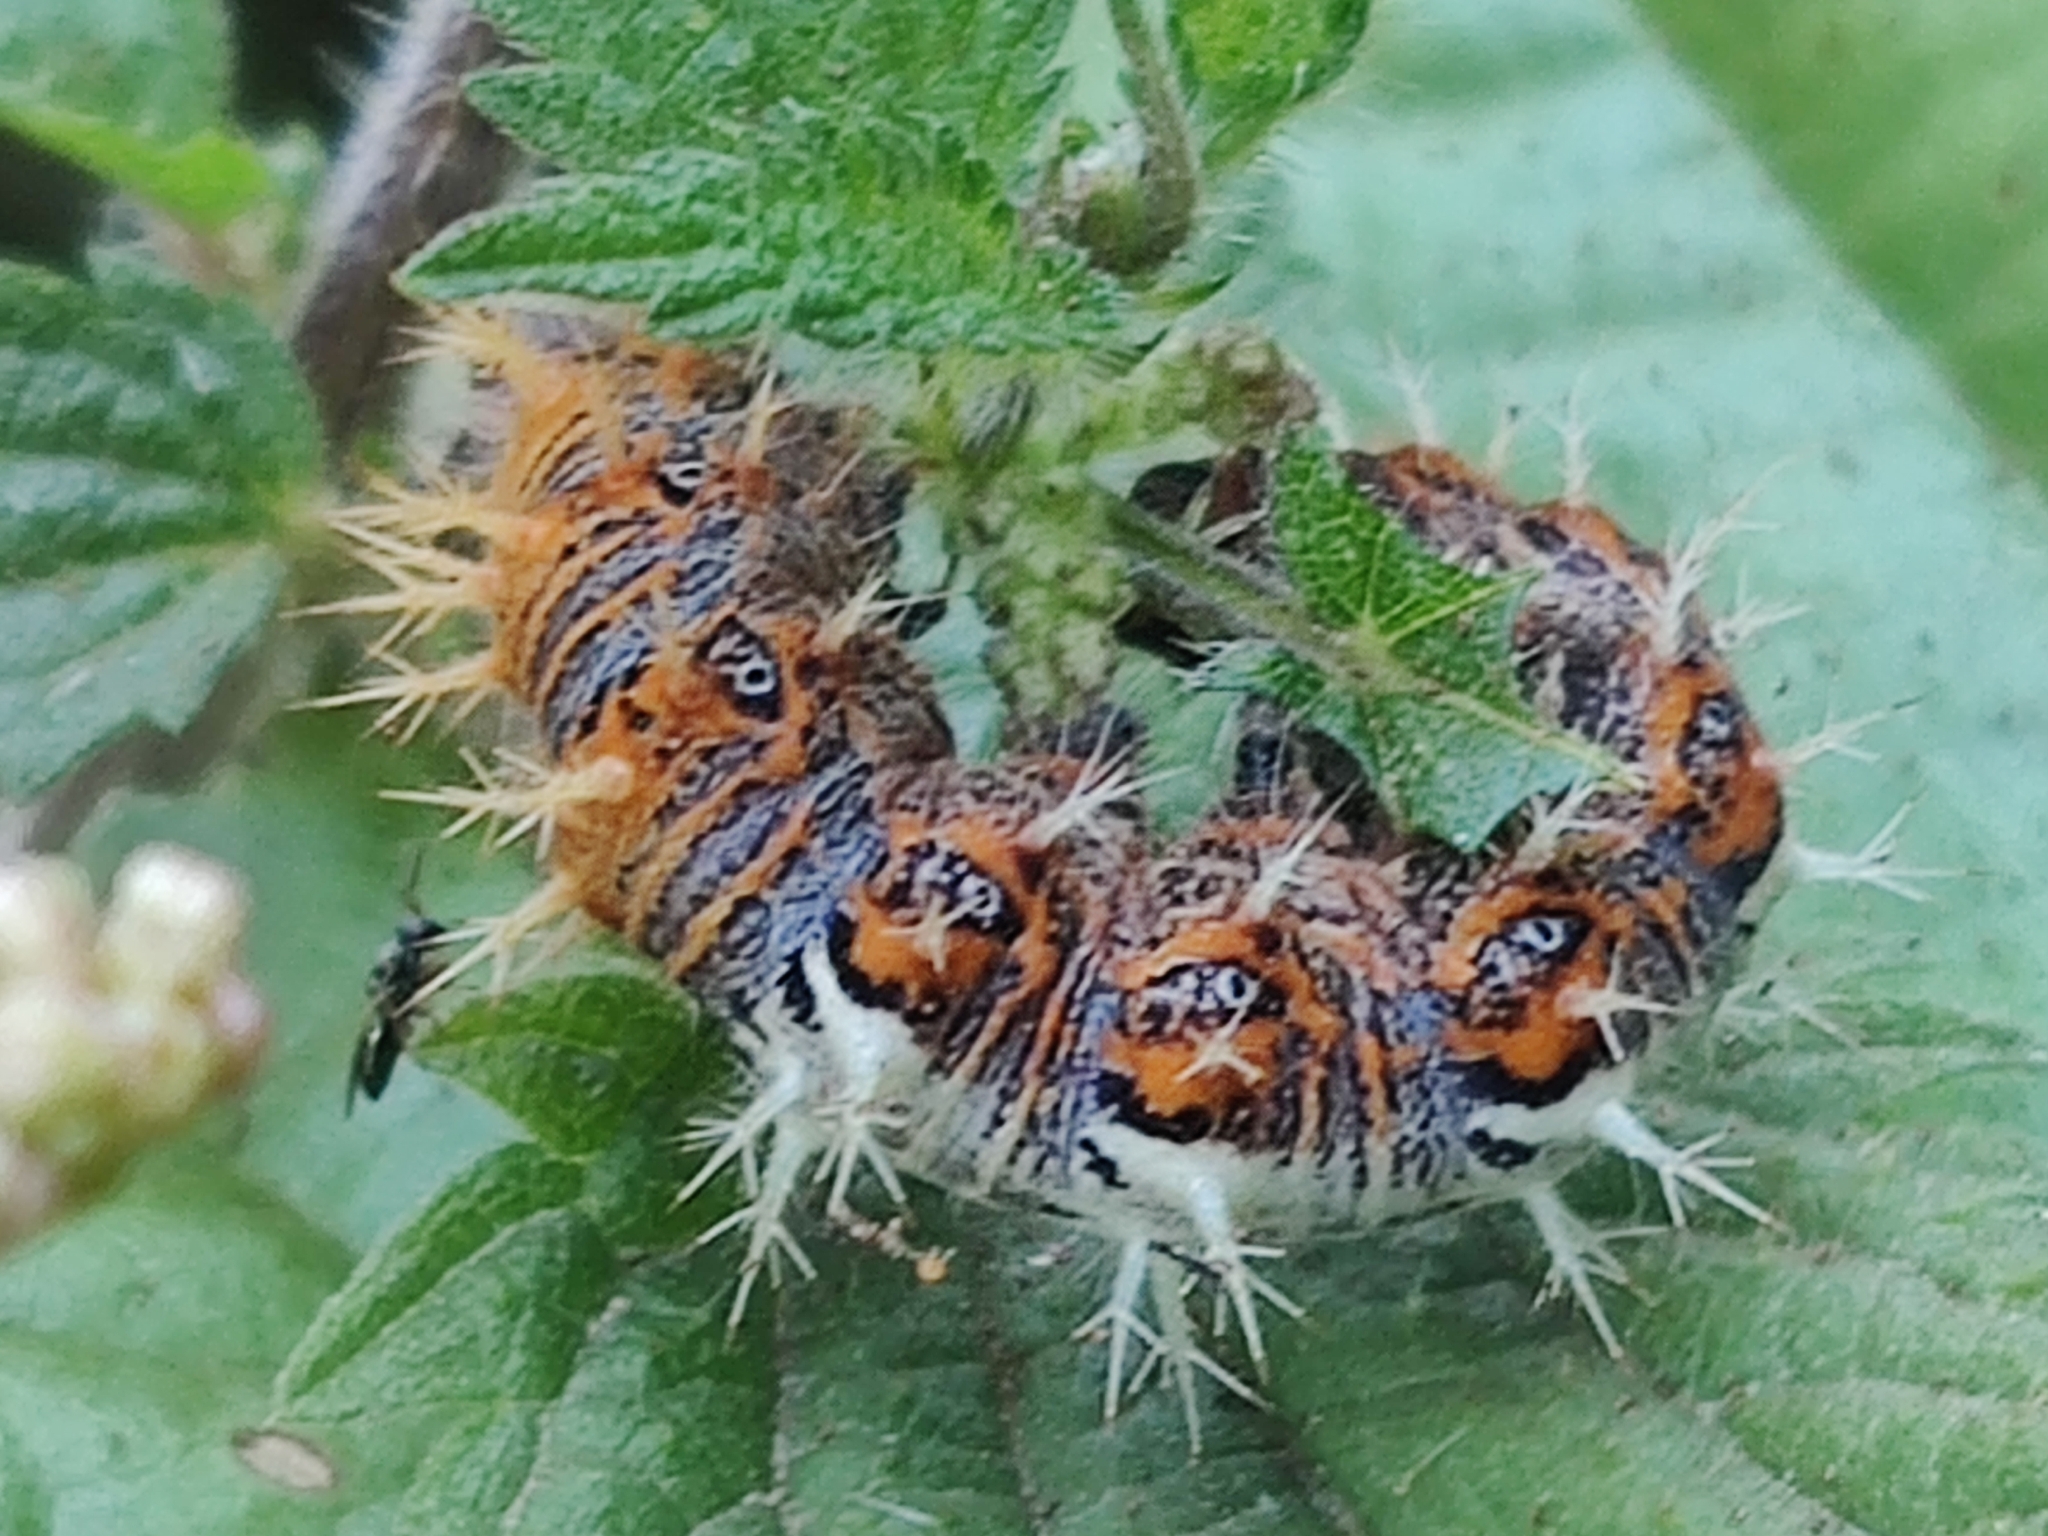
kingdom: Animalia
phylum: Arthropoda
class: Insecta
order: Lepidoptera
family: Nymphalidae
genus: Polygonia
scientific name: Polygonia c-album
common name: Comma
